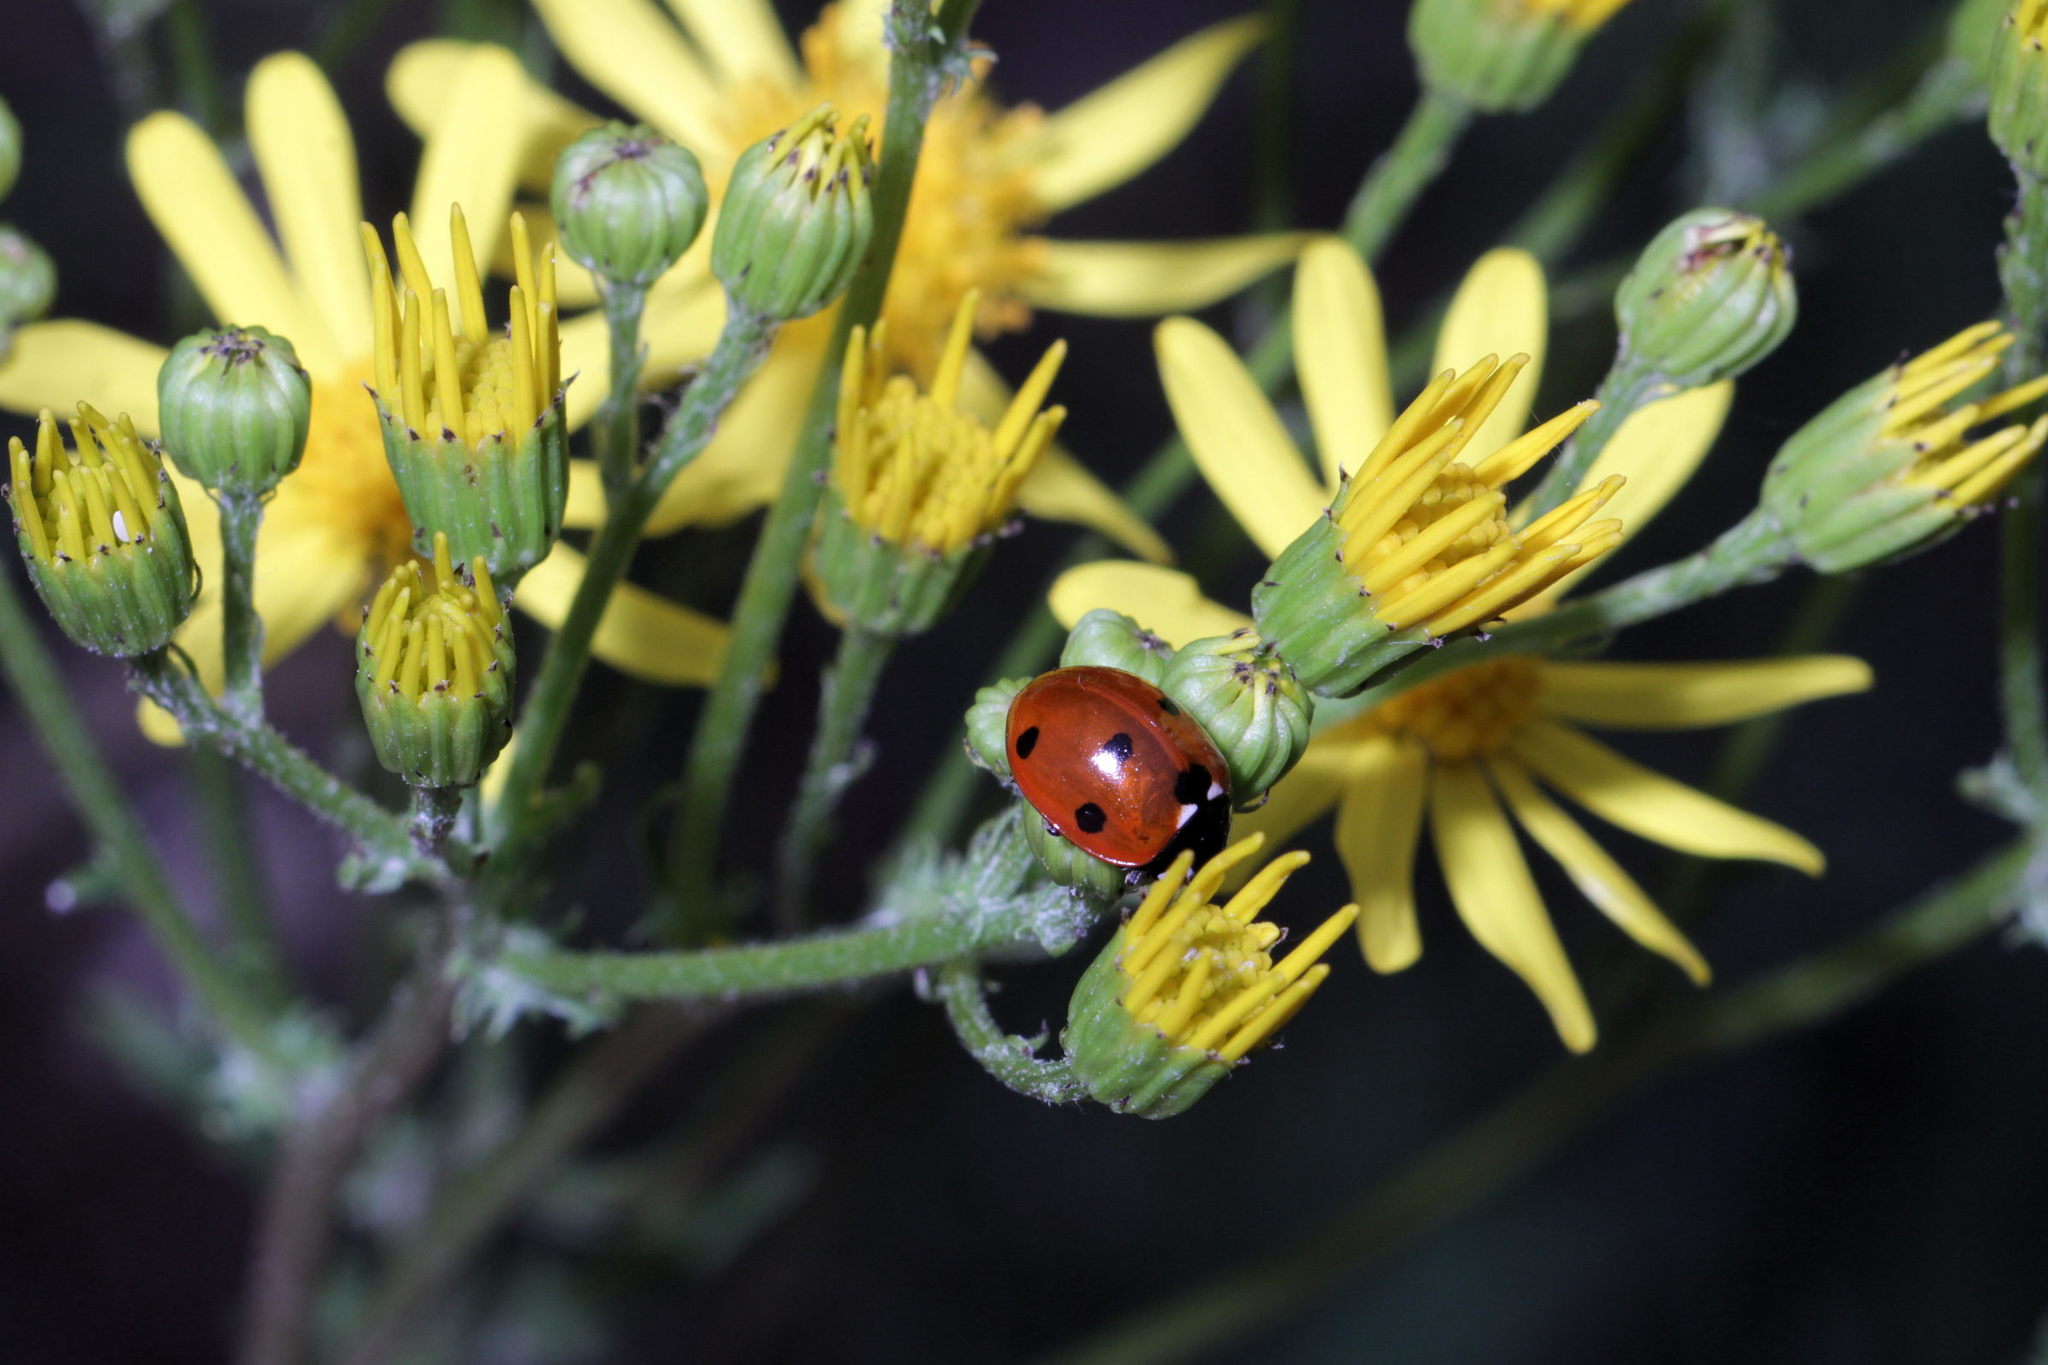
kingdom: Animalia
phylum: Arthropoda
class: Insecta
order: Coleoptera
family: Coccinellidae
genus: Coccinella
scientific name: Coccinella septempunctata
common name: Sevenspotted lady beetle
